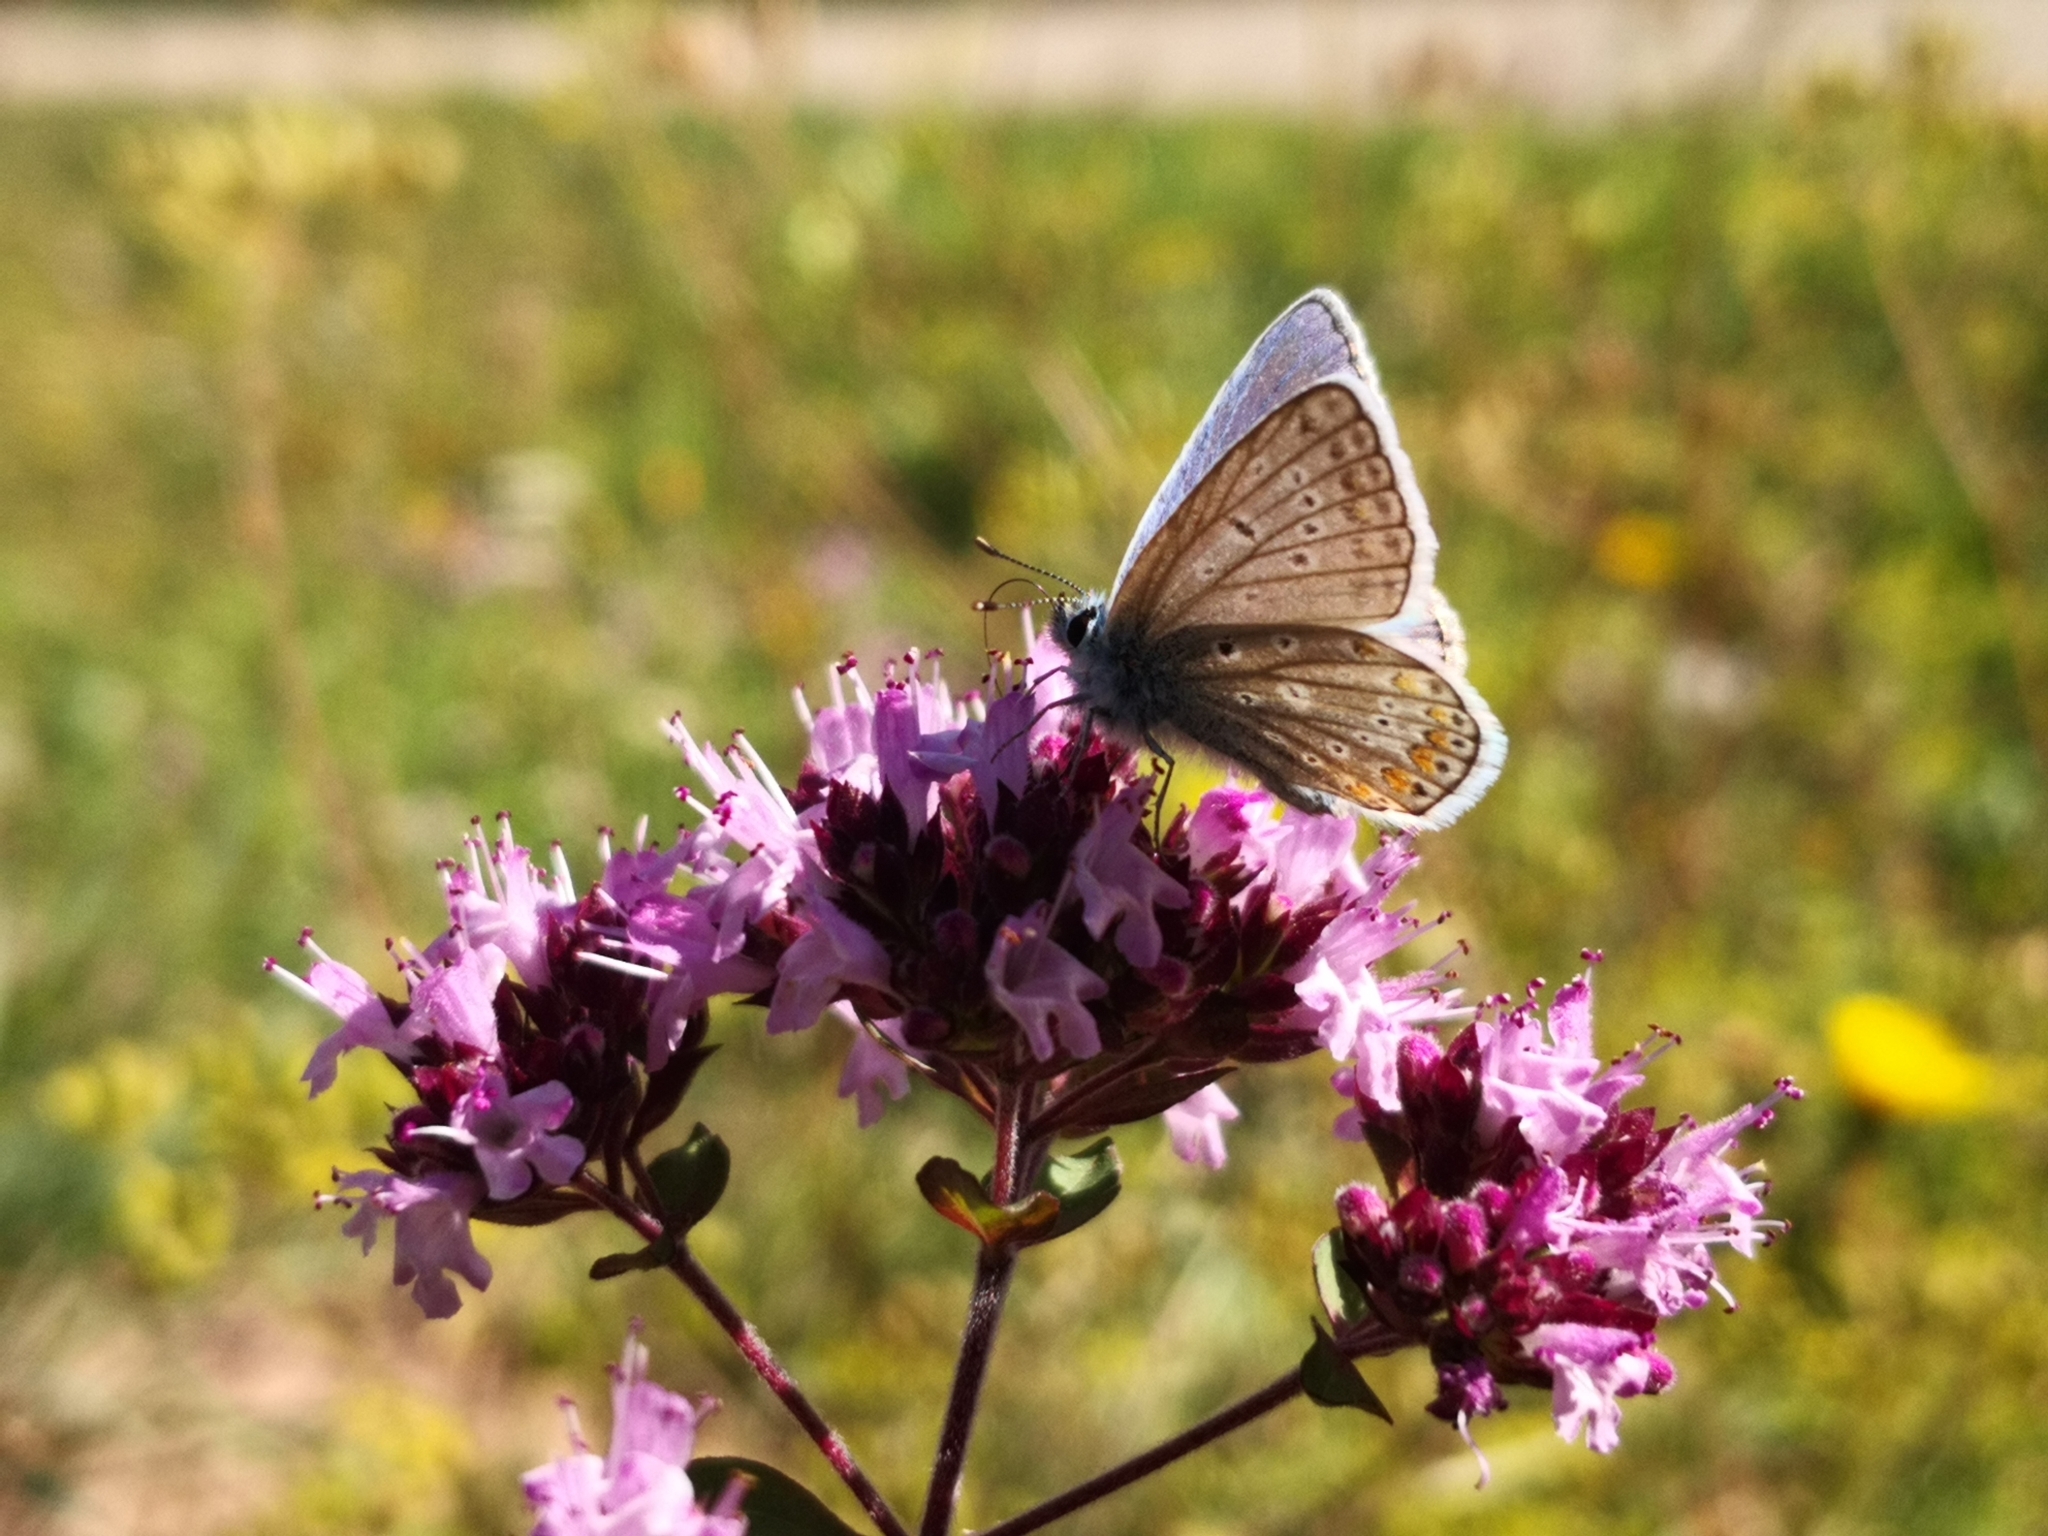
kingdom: Animalia
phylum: Arthropoda
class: Insecta
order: Lepidoptera
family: Lycaenidae
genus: Polyommatus
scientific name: Polyommatus icarus
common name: Common blue
